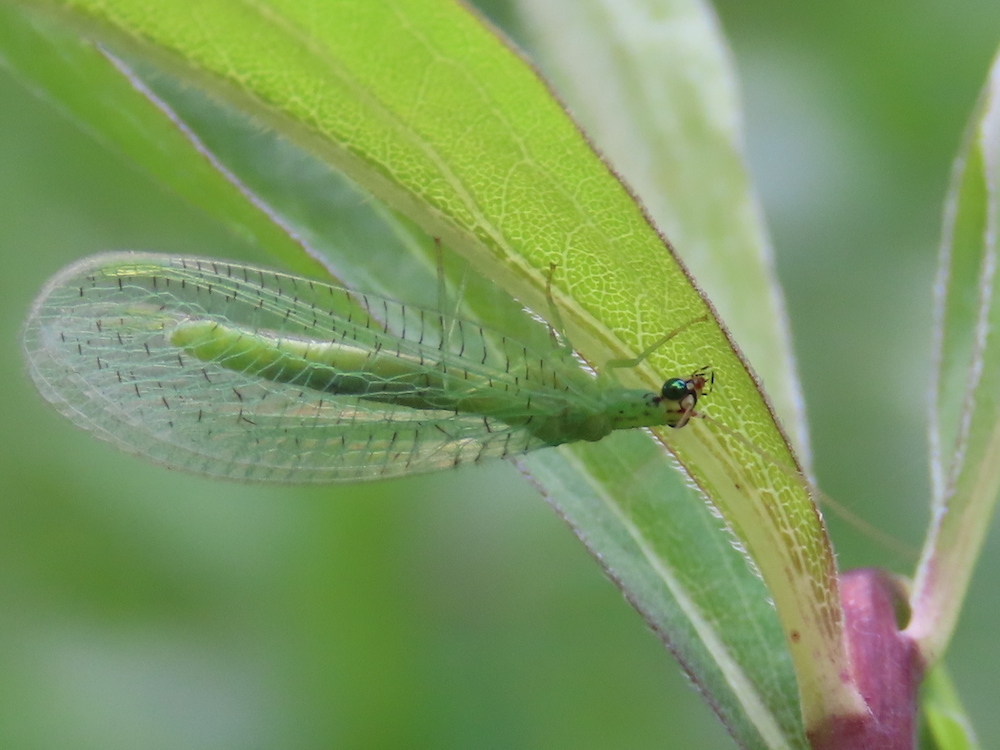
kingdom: Animalia
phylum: Arthropoda
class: Insecta
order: Neuroptera
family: Chrysopidae
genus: Chrysopa
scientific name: Chrysopa oculata
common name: Golden-eyed lacewing
